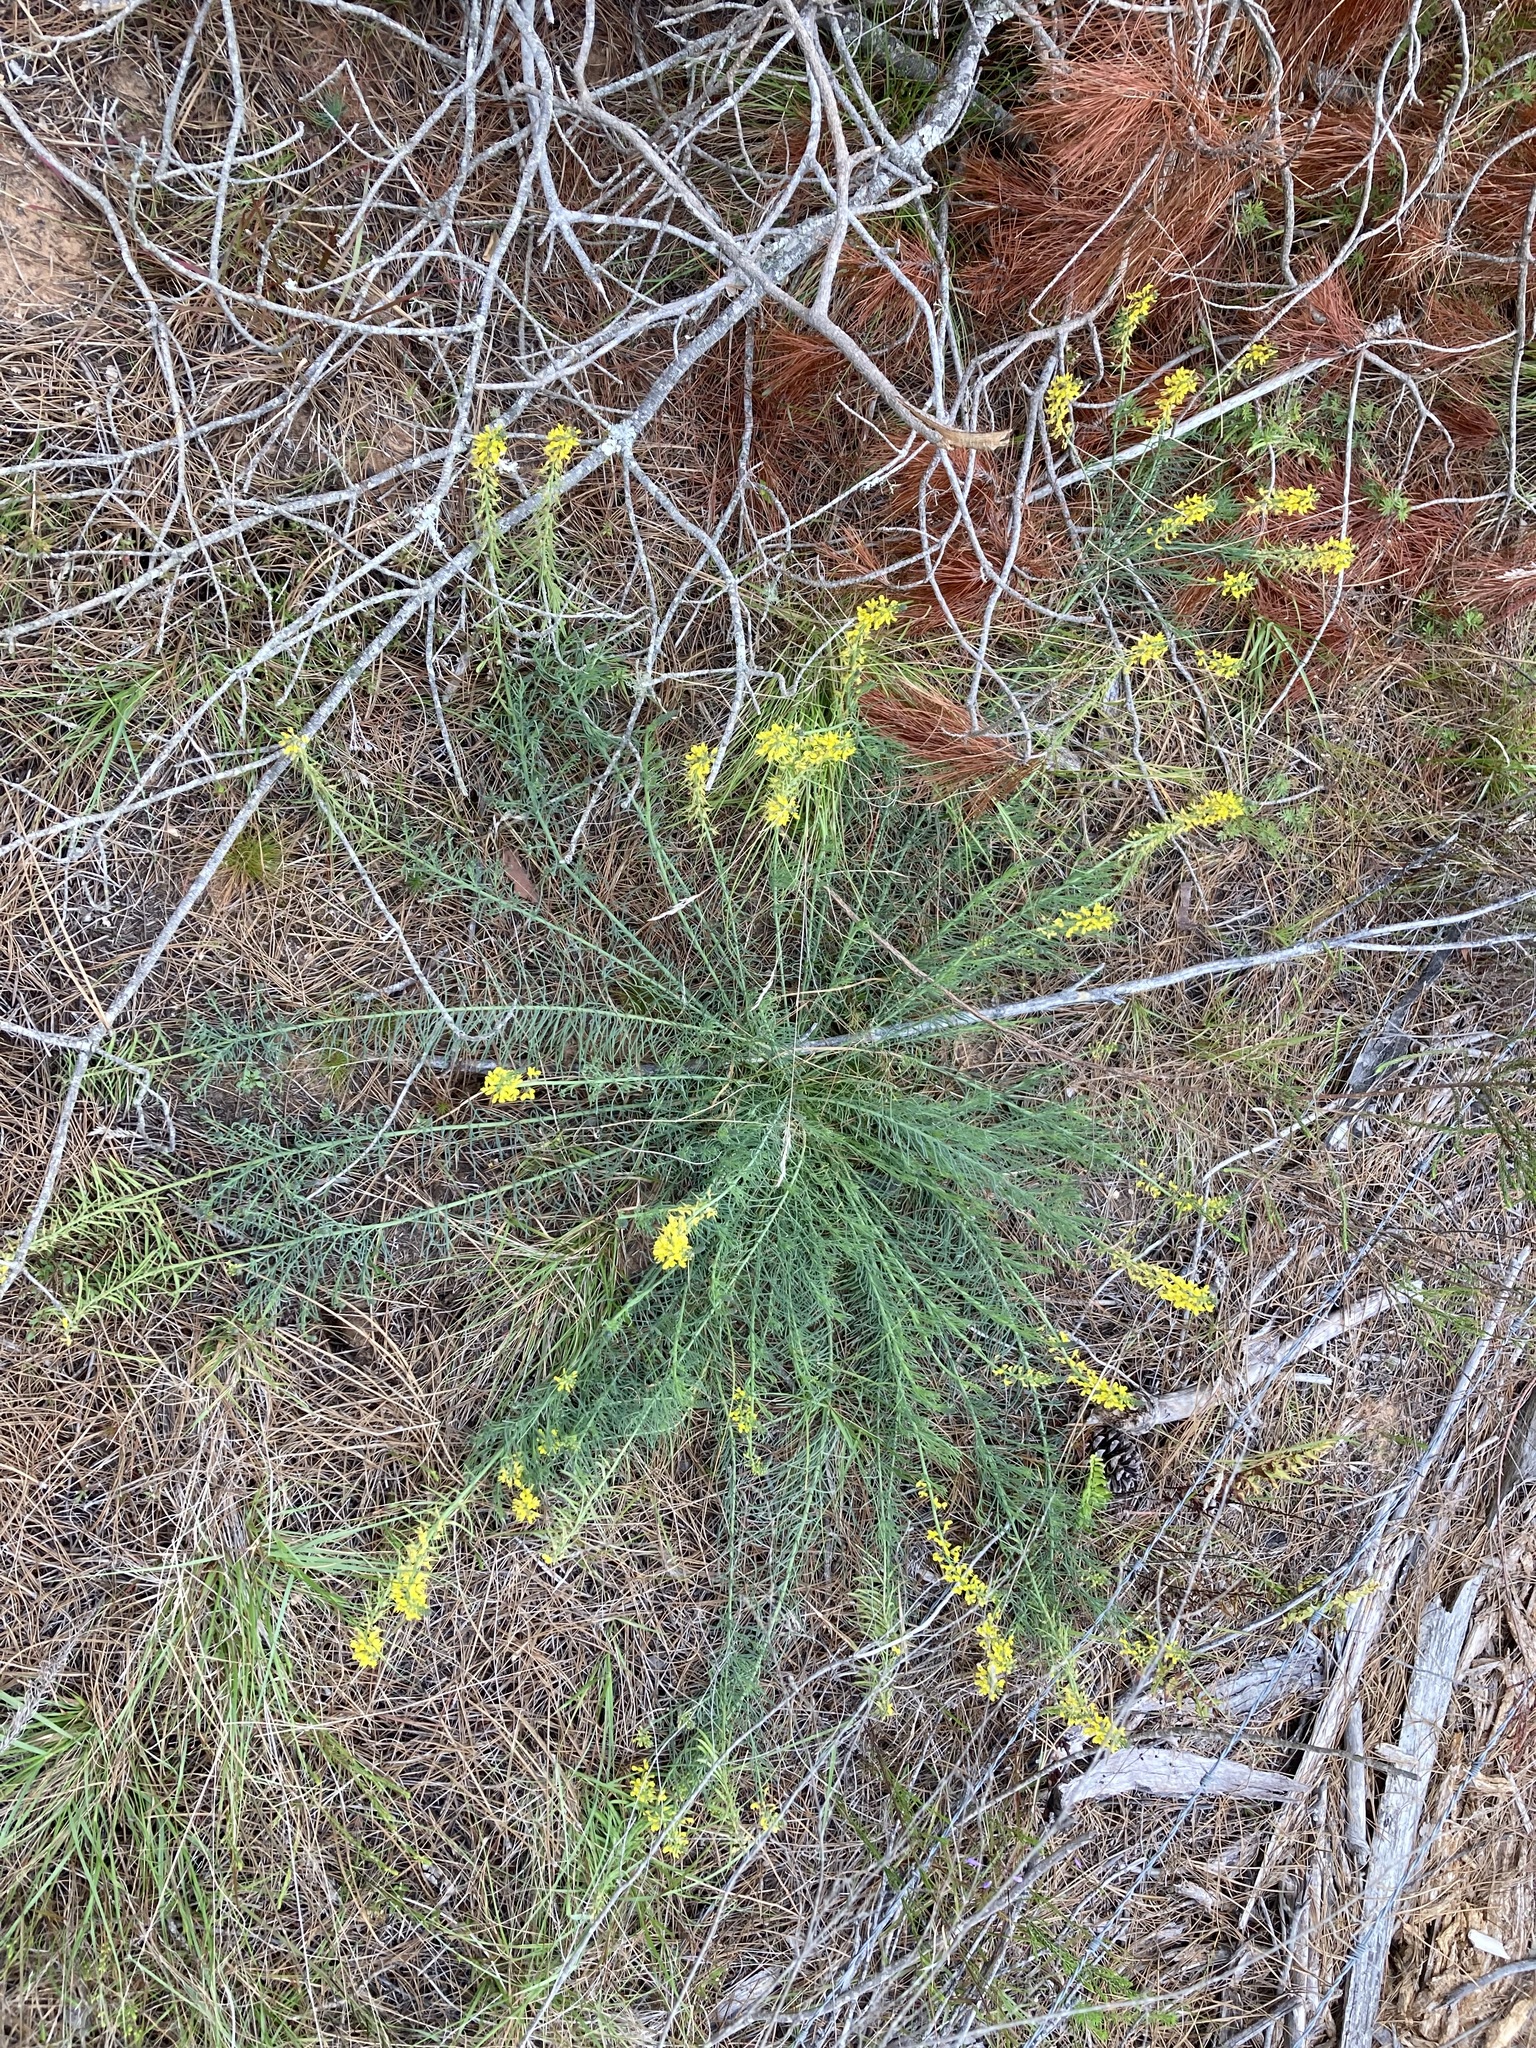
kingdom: Plantae
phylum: Tracheophyta
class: Magnoliopsida
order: Fabales
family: Fabaceae
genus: Lebeckia
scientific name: Lebeckia gracilis
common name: Slender ganna
